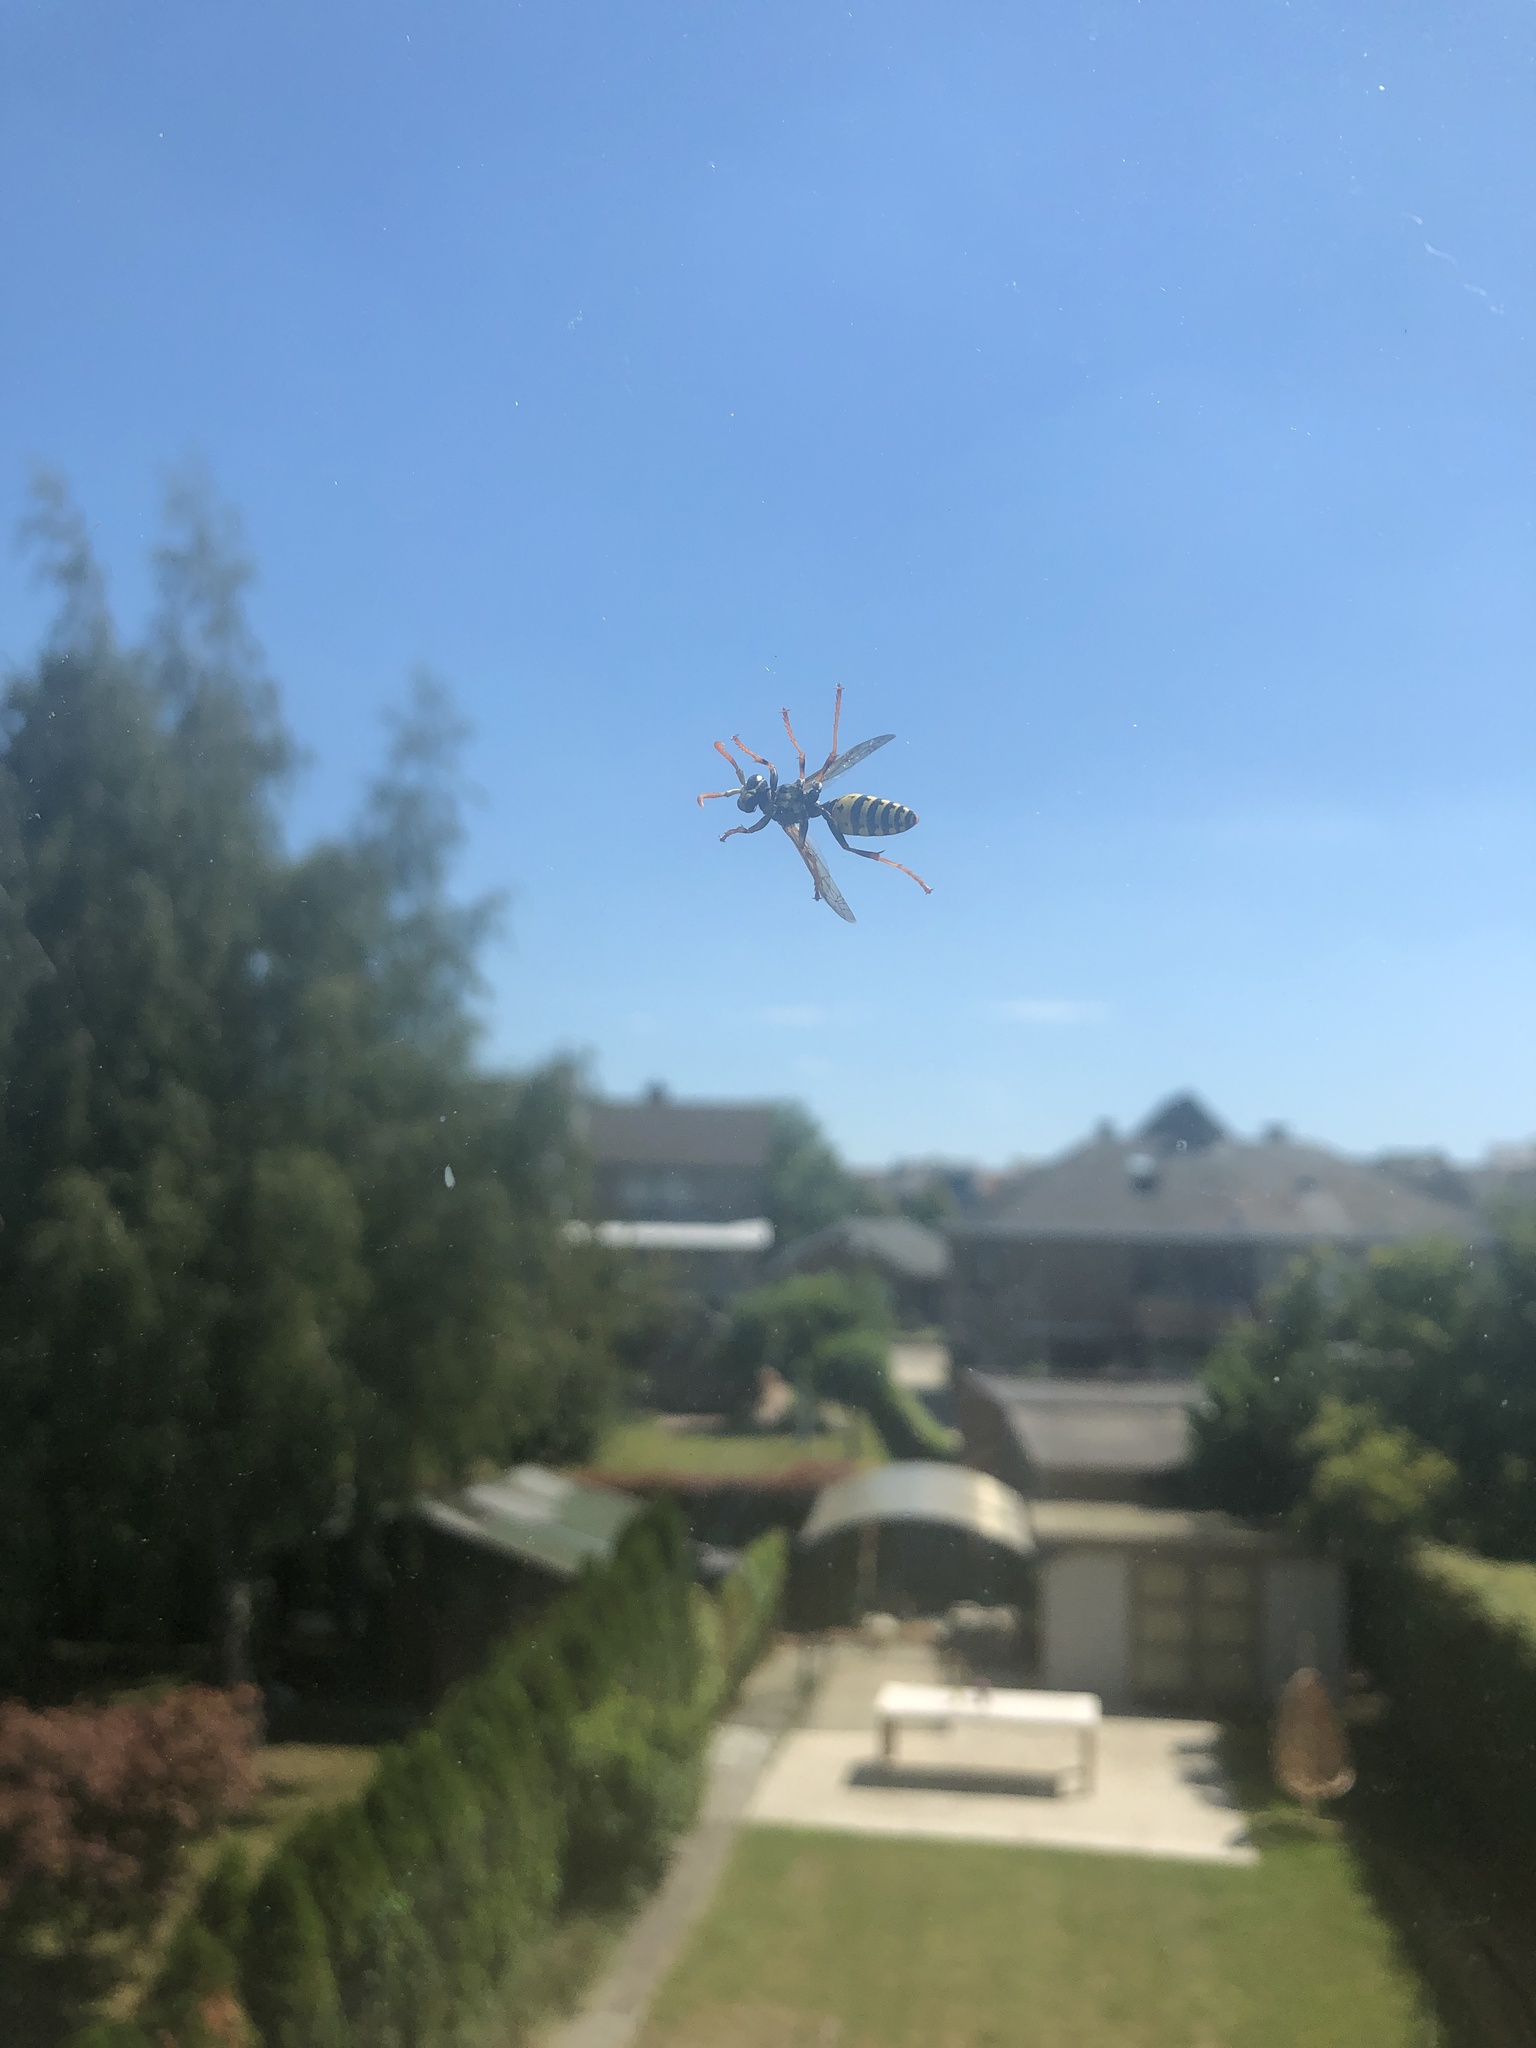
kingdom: Animalia
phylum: Arthropoda
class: Insecta
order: Hymenoptera
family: Eumenidae
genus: Polistes
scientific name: Polistes dominula
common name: Paper wasp
